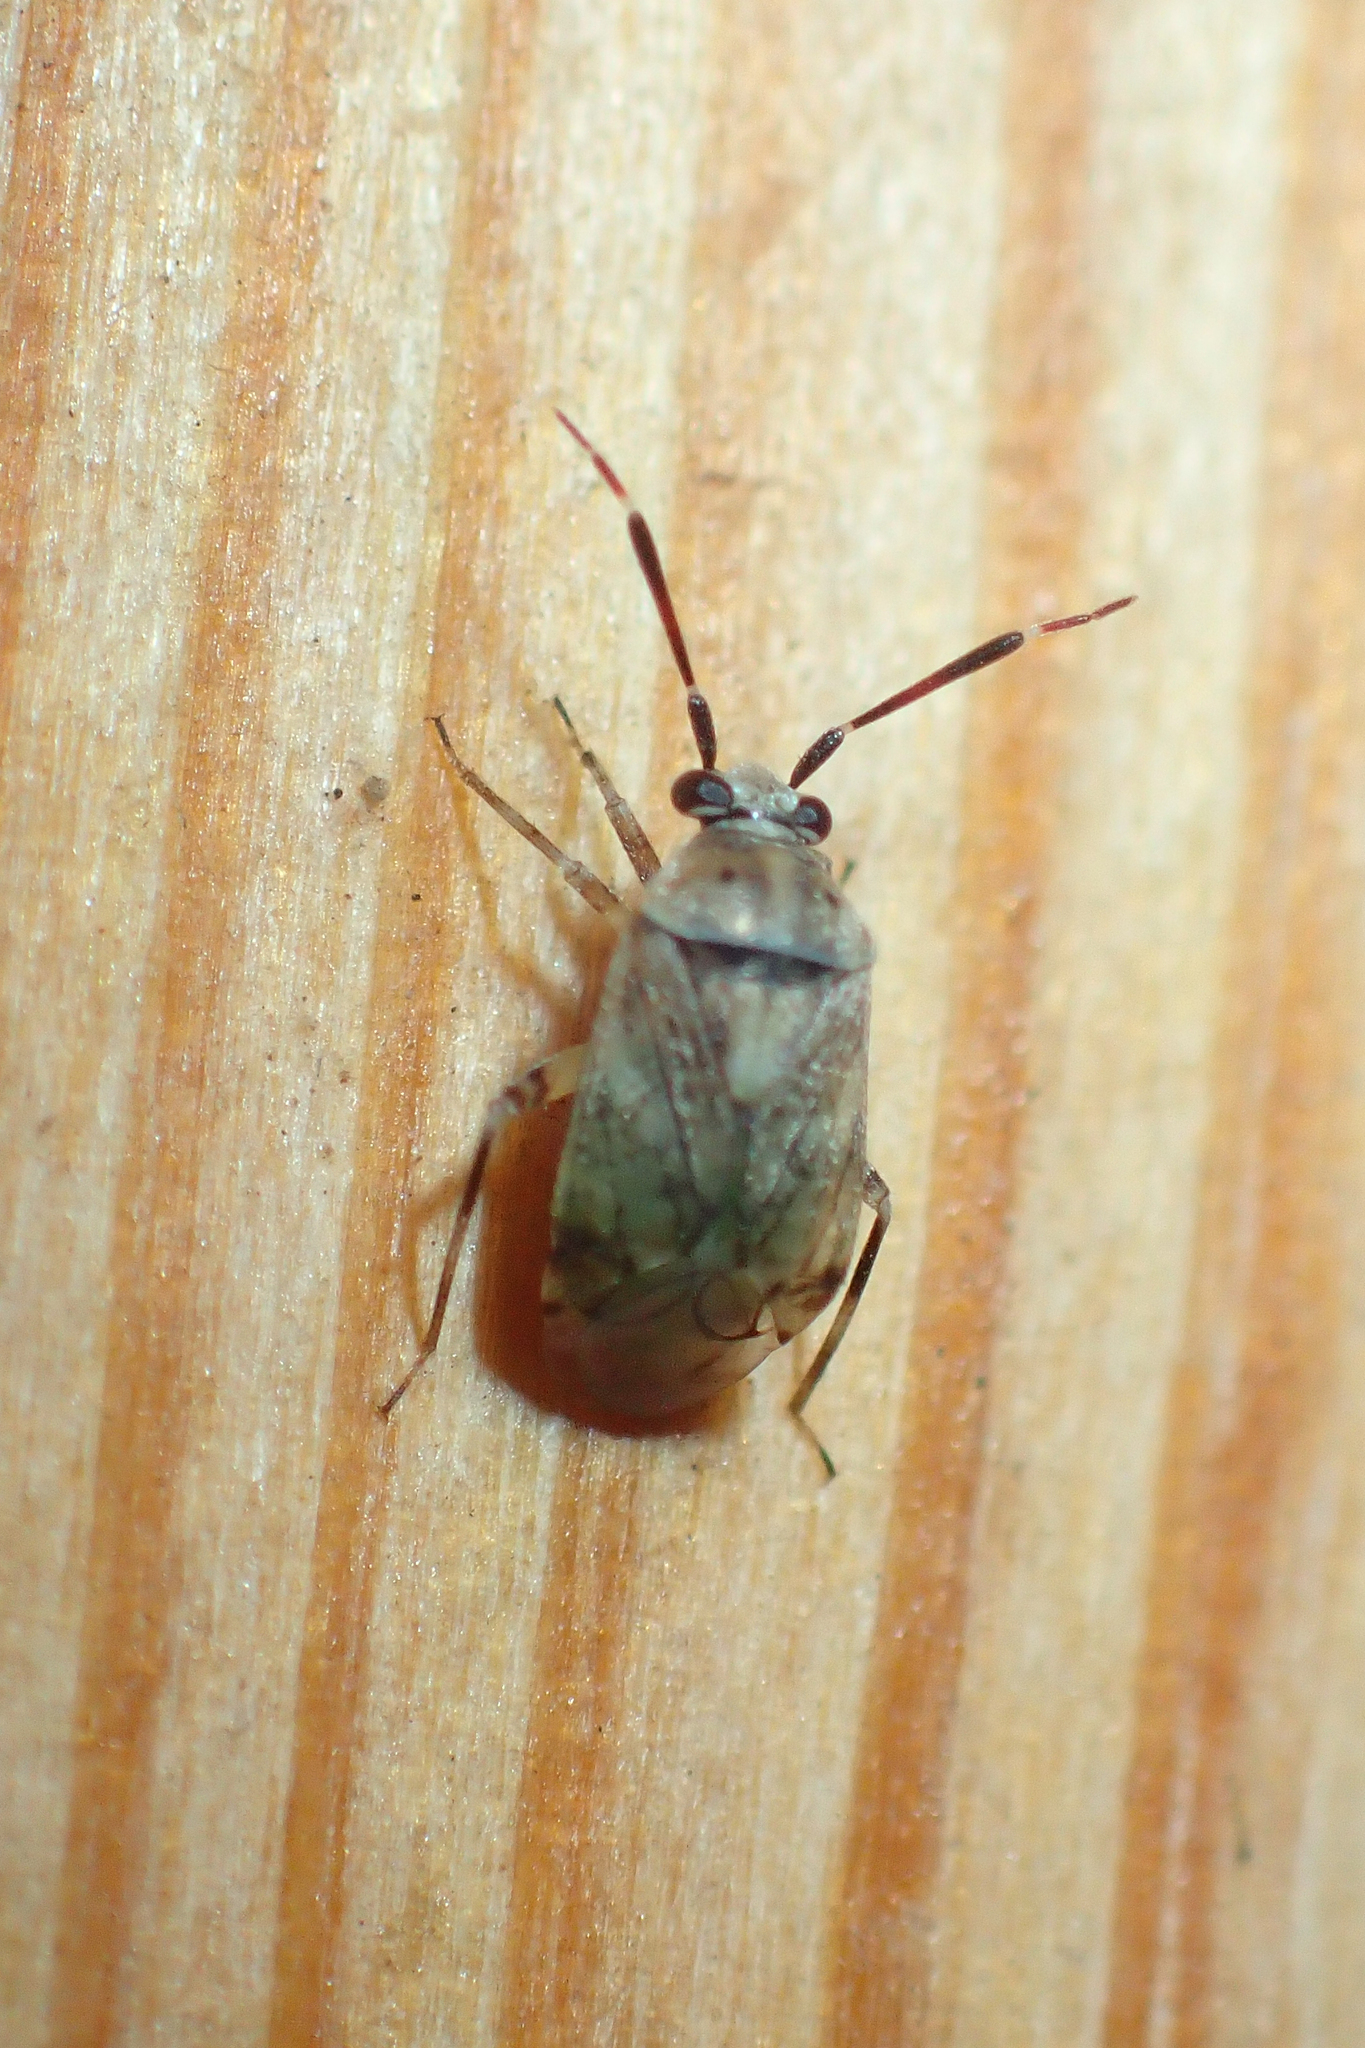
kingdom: Animalia
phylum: Arthropoda
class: Insecta
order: Hemiptera
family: Miridae
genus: Eurystylus
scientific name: Eurystylus bellevoyei
